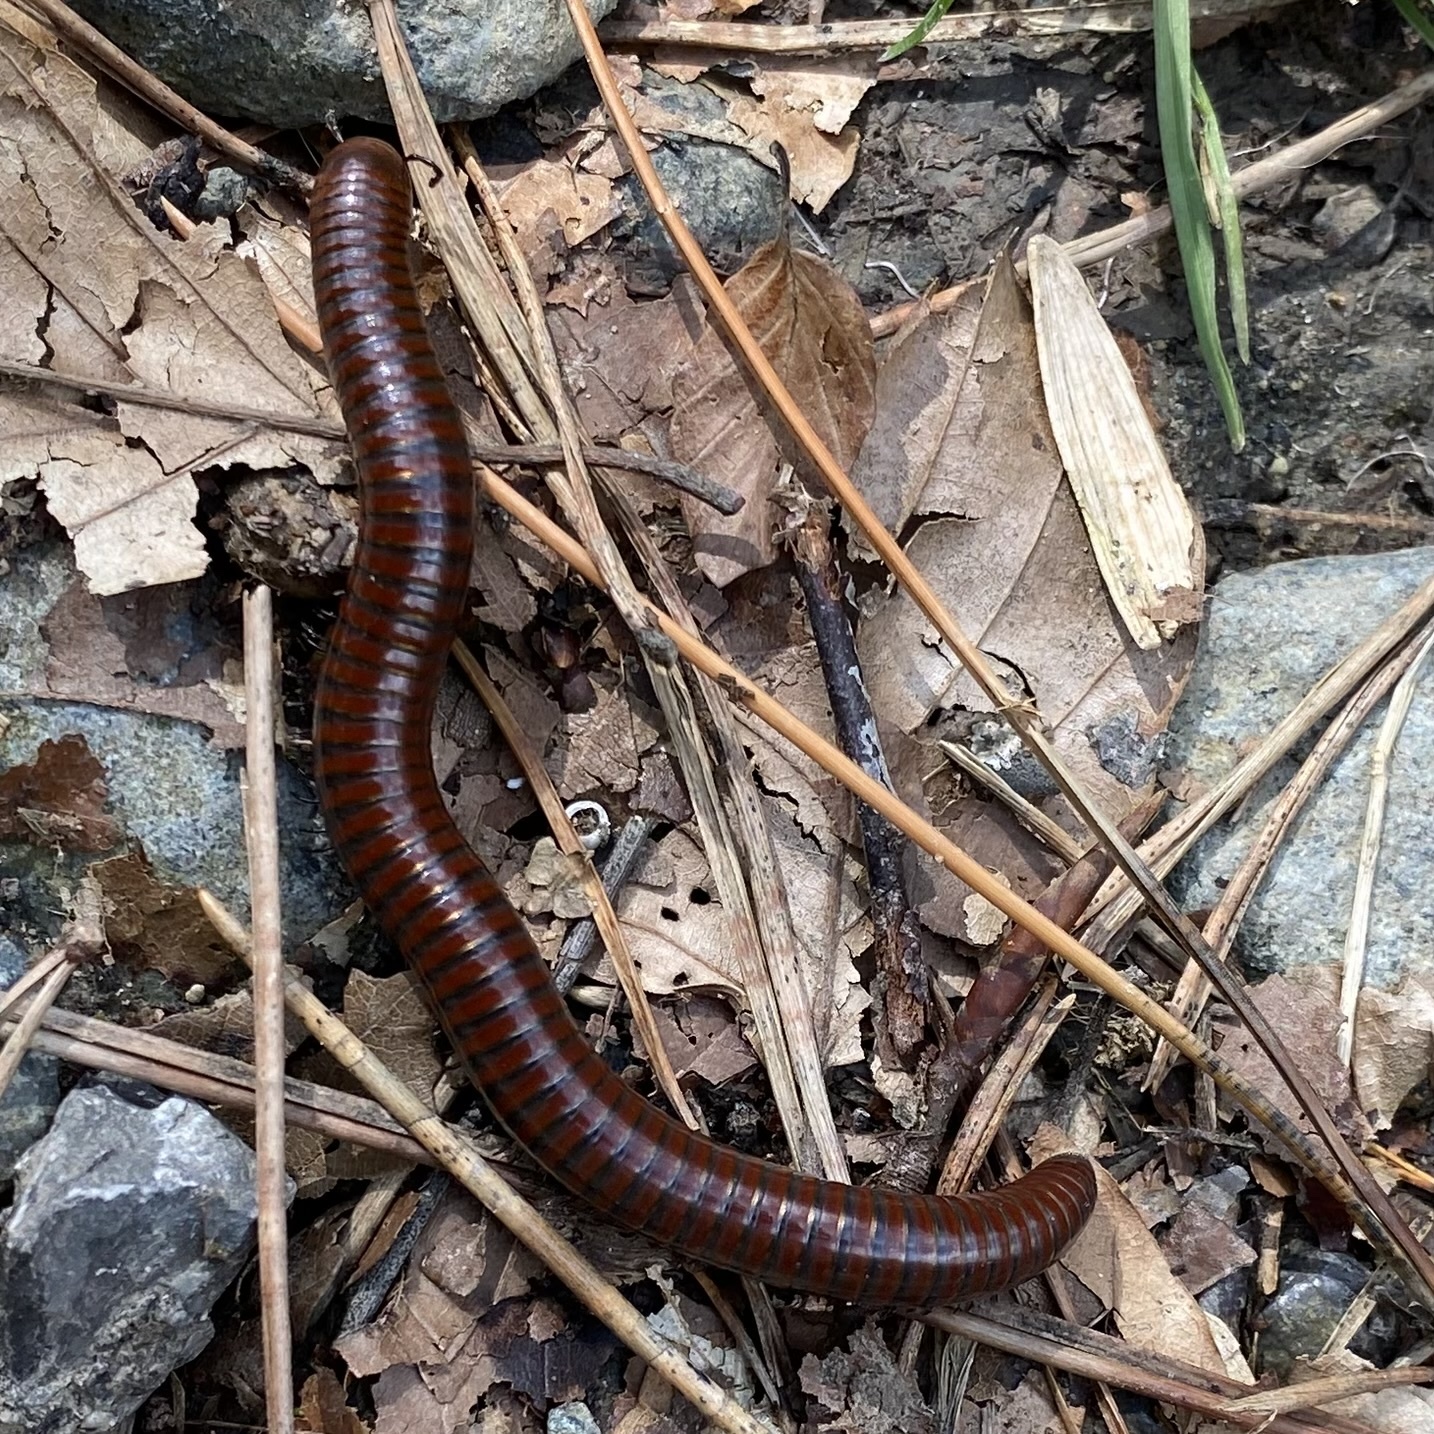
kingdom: Animalia
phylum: Arthropoda
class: Diplopoda
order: Julida
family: Julidae
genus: Pachyiulus
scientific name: Pachyiulus hungaricus
